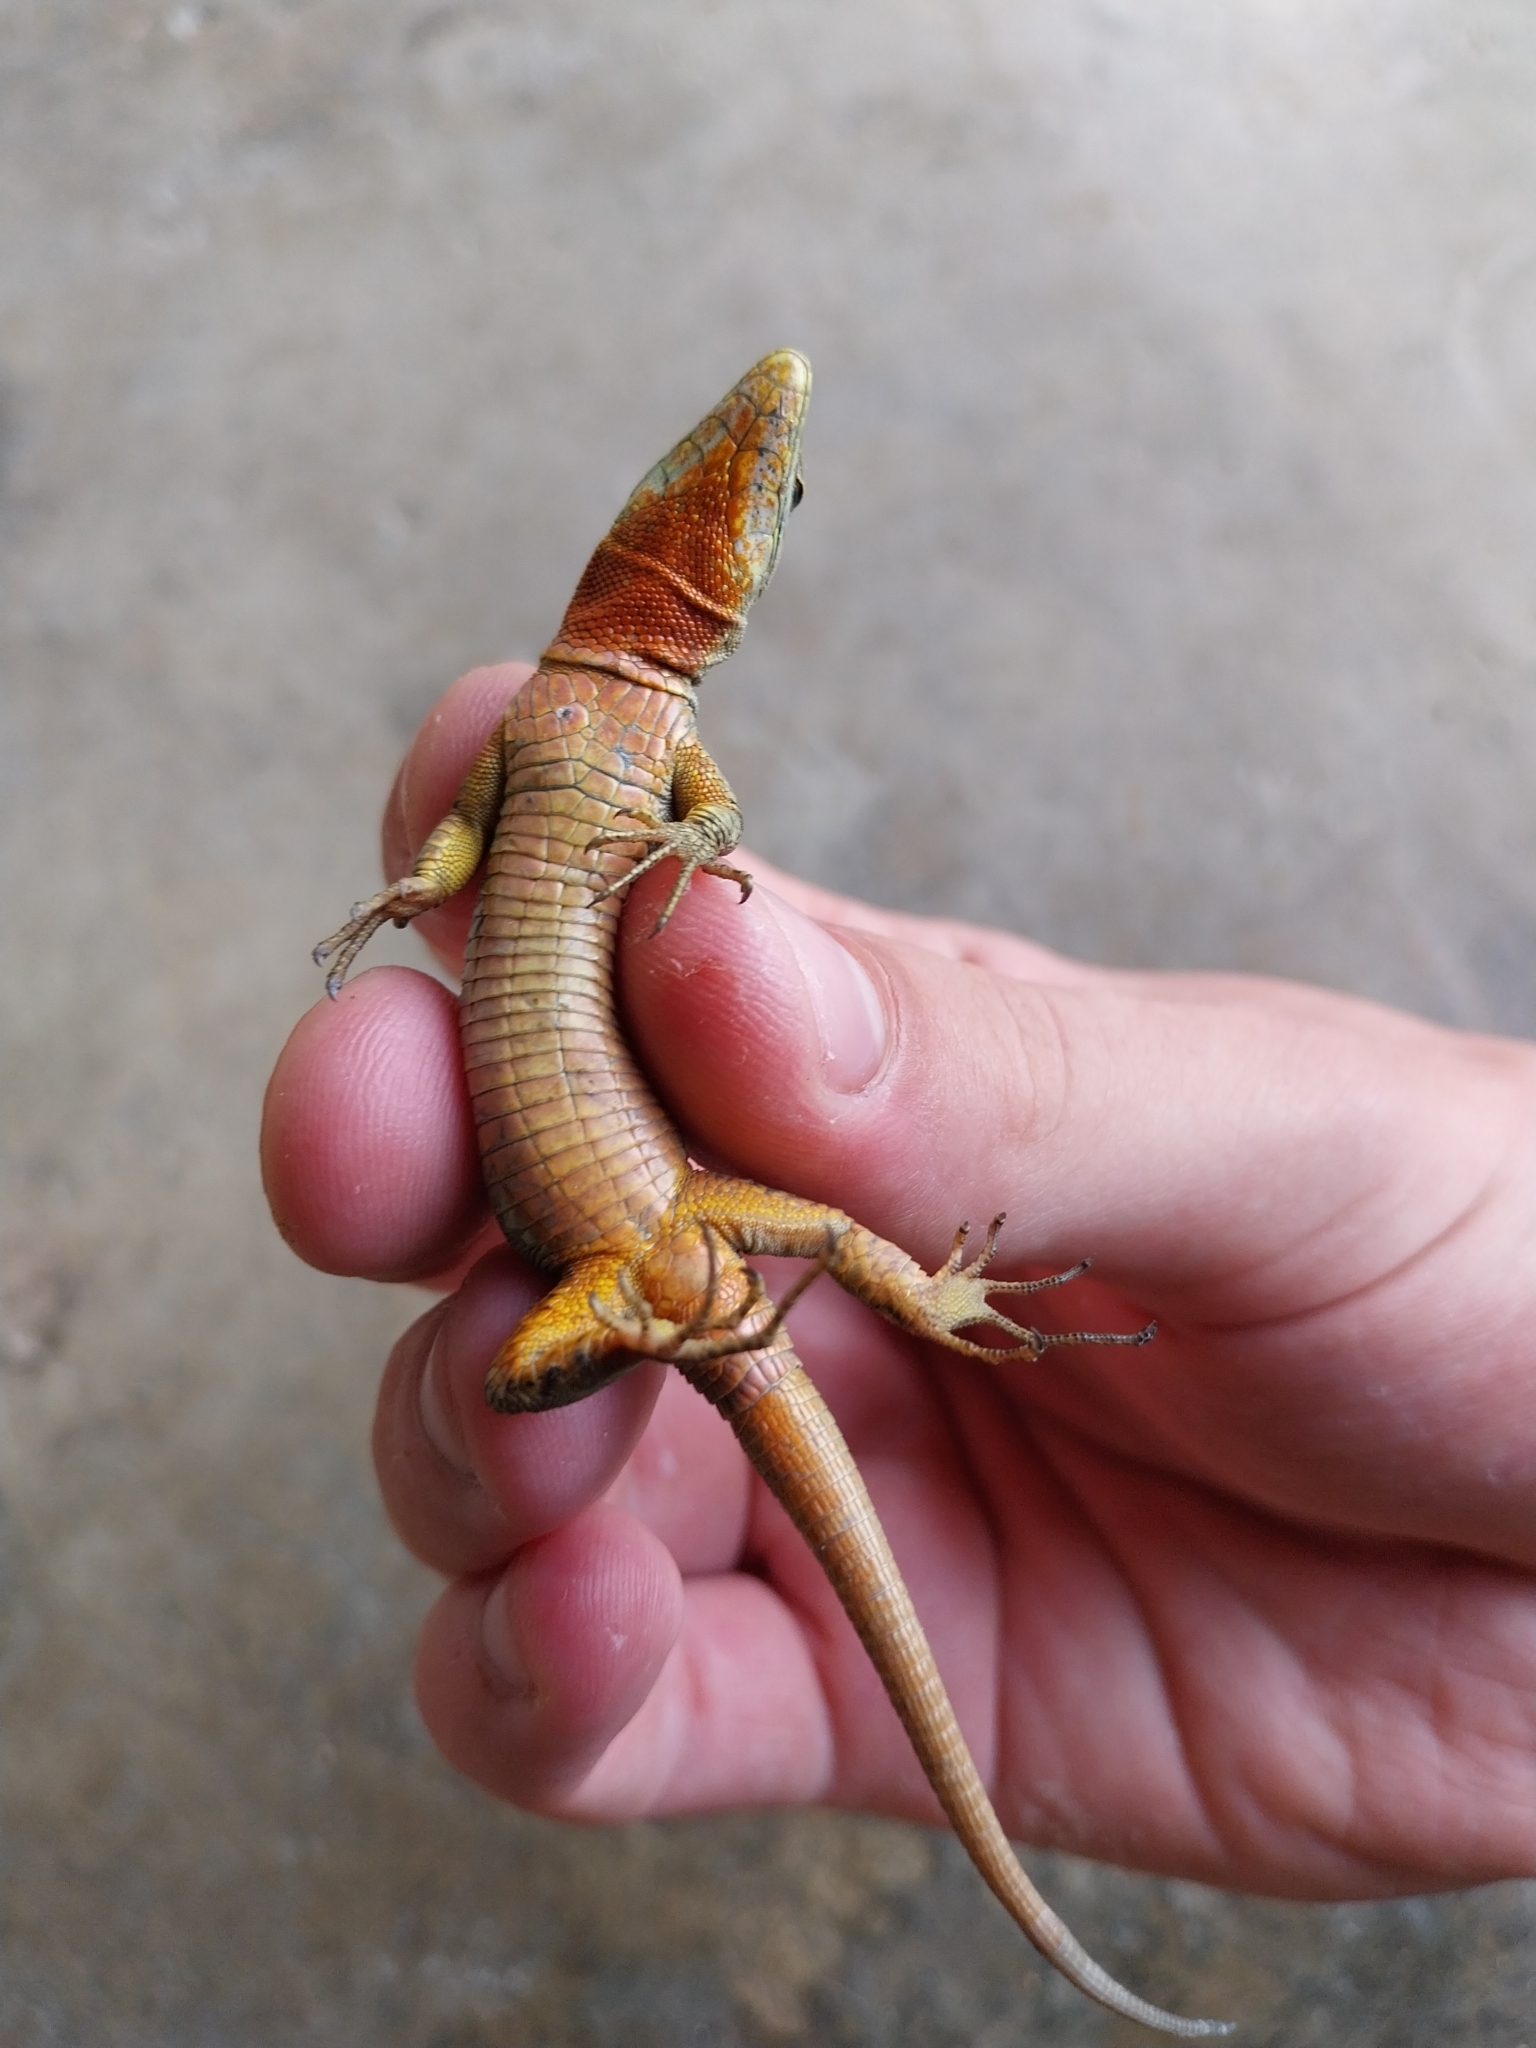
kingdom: Animalia
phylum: Chordata
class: Squamata
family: Lacertidae
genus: Podarcis
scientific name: Podarcis muralis
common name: Common wall lizard
